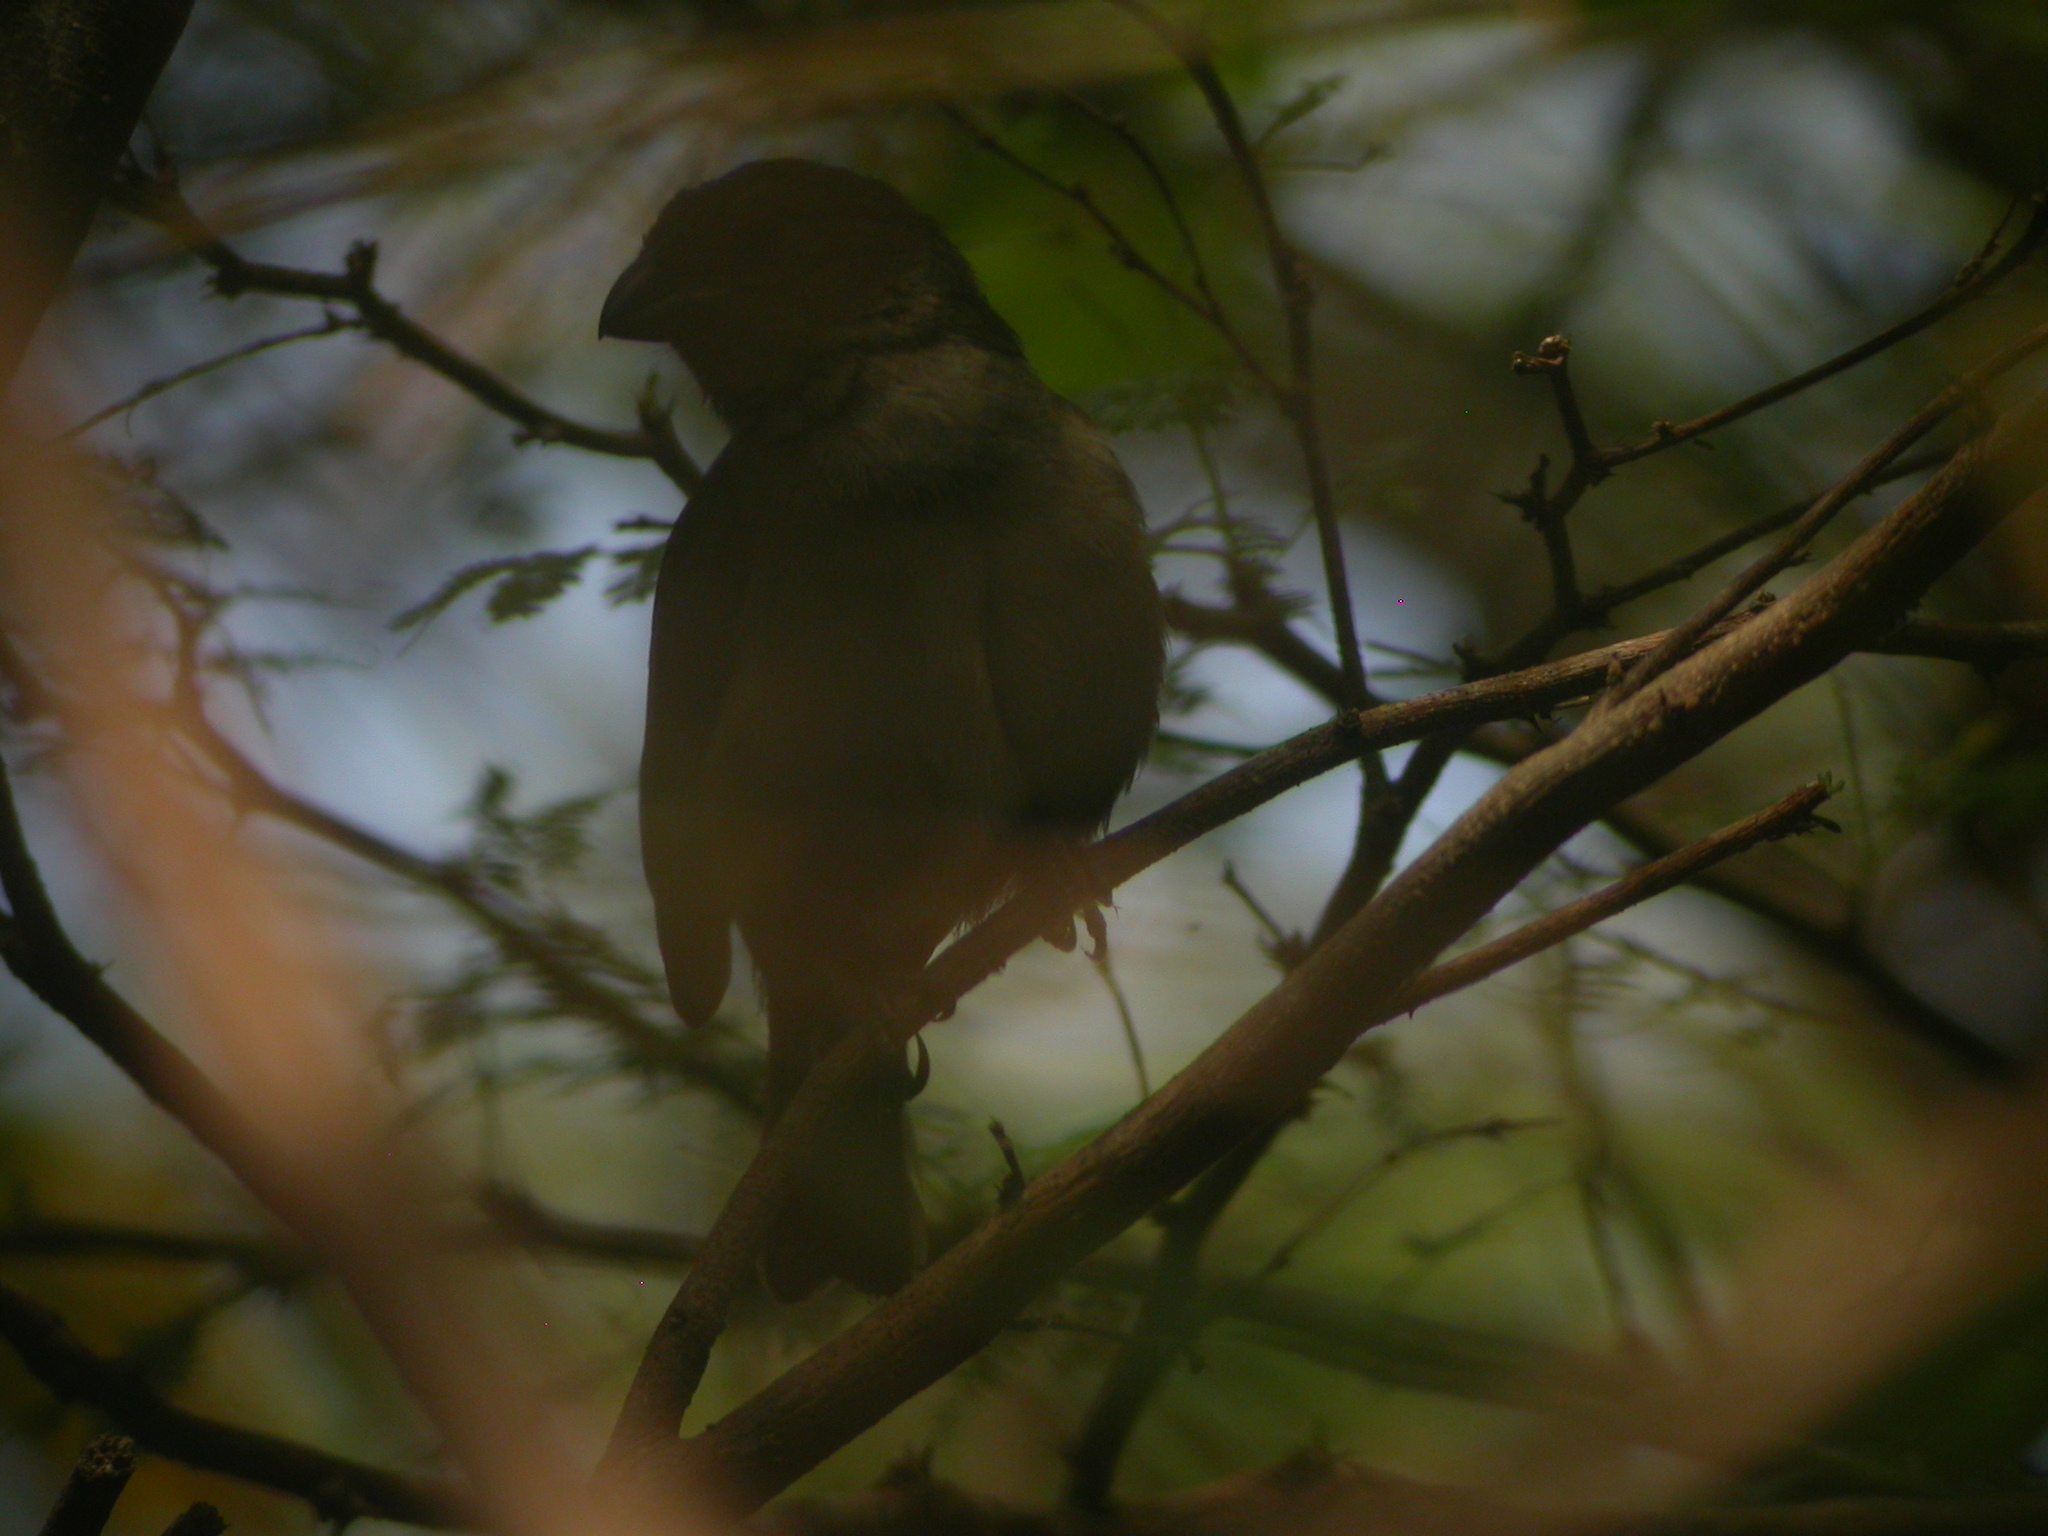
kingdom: Animalia
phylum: Chordata
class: Aves
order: Passeriformes
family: Thraupidae
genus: Saltator
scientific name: Saltator albicollis
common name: Lesser antillean saltator
